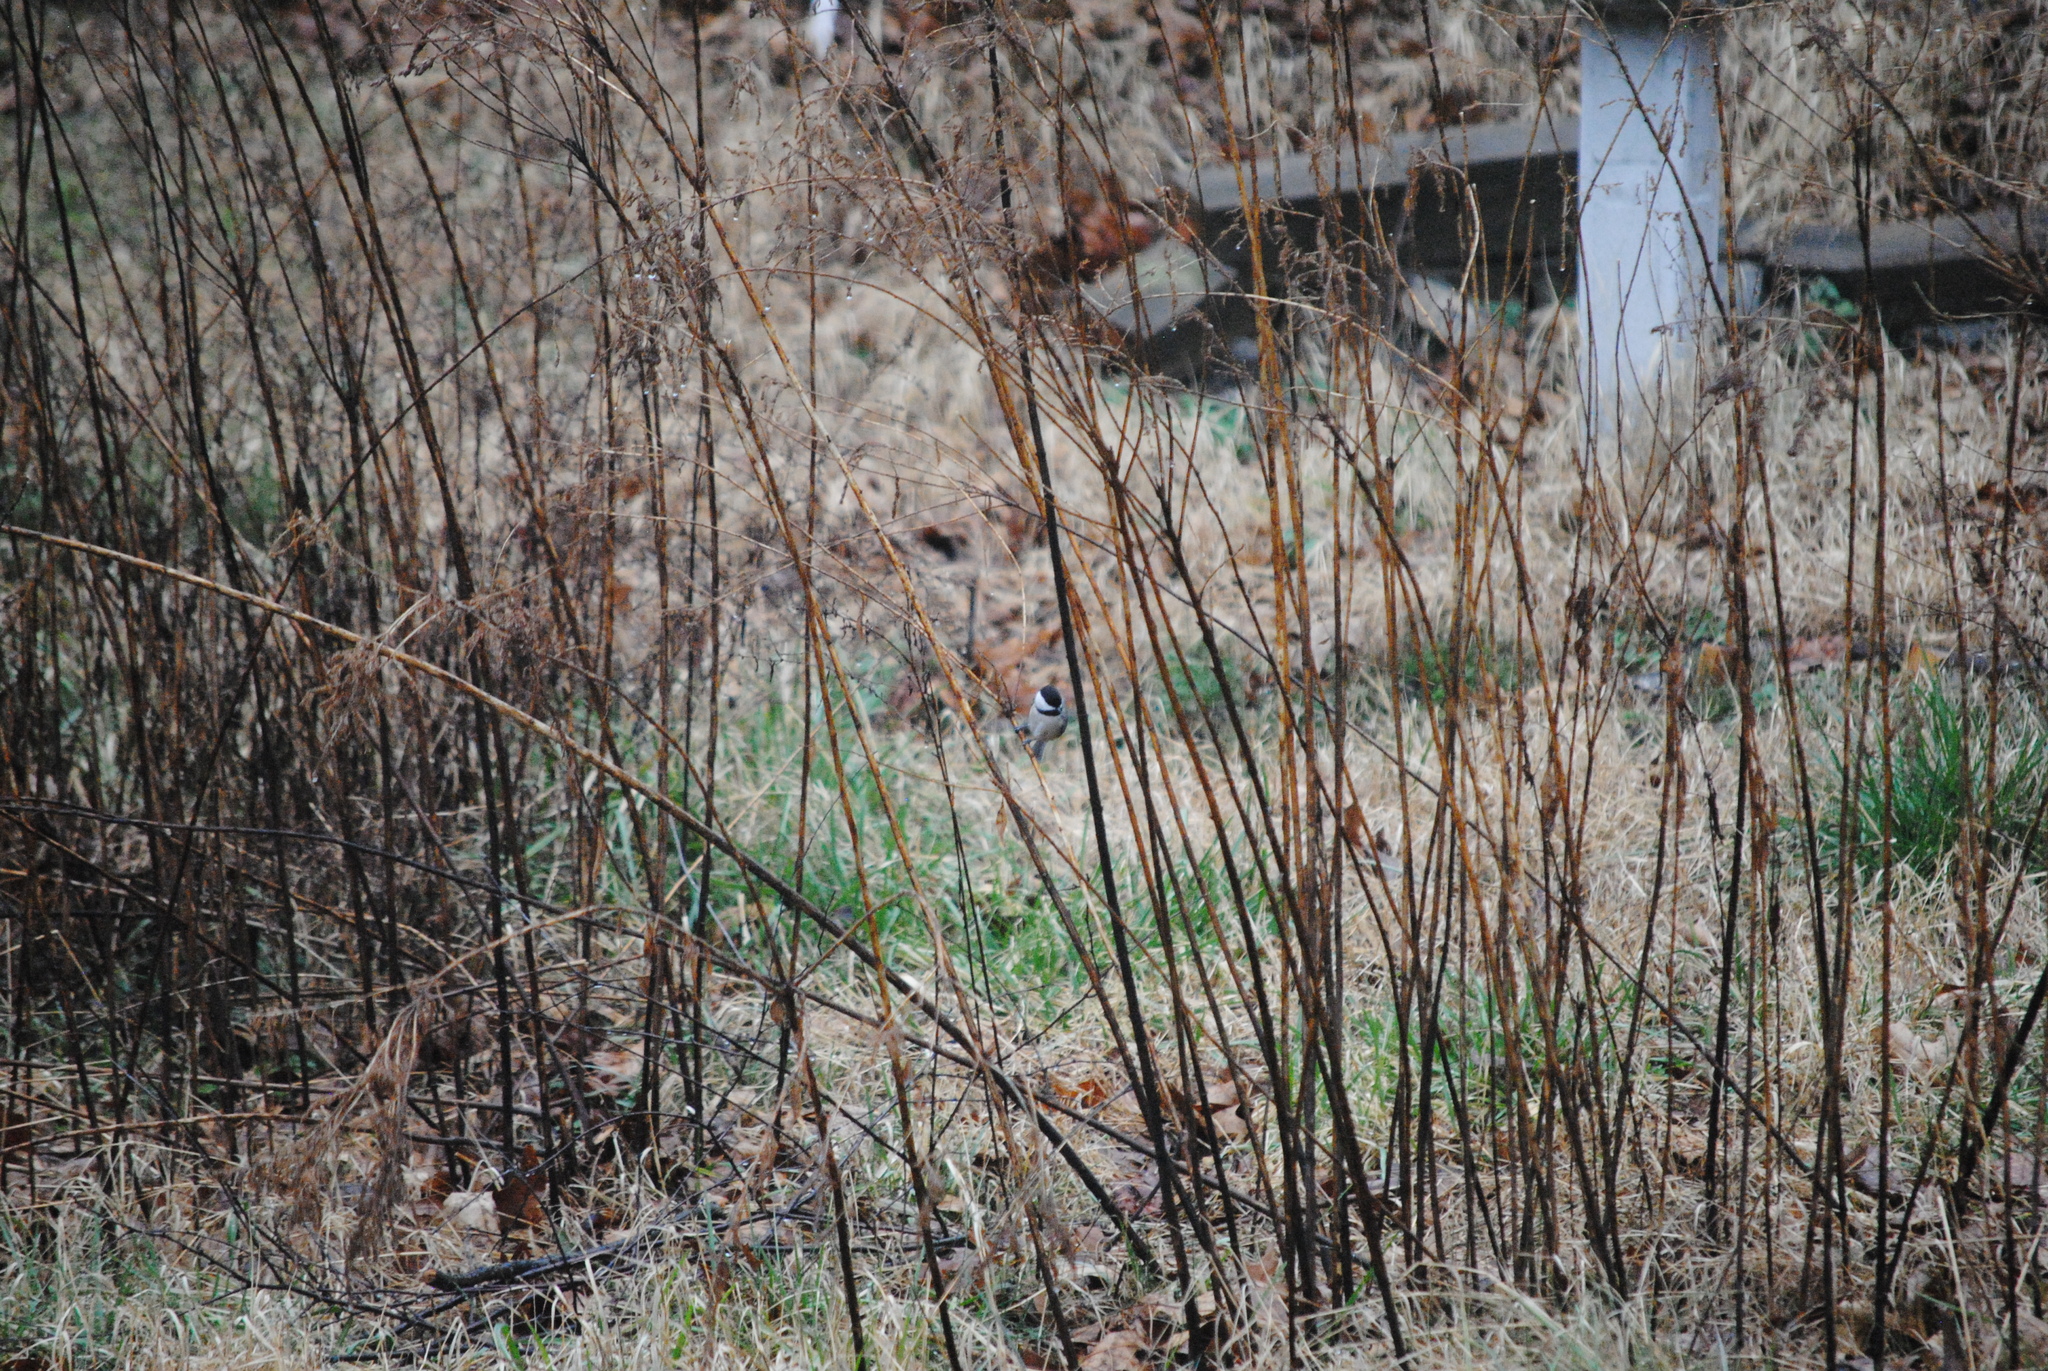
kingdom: Animalia
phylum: Chordata
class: Aves
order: Passeriformes
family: Paridae
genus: Poecile
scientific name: Poecile carolinensis
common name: Carolina chickadee
